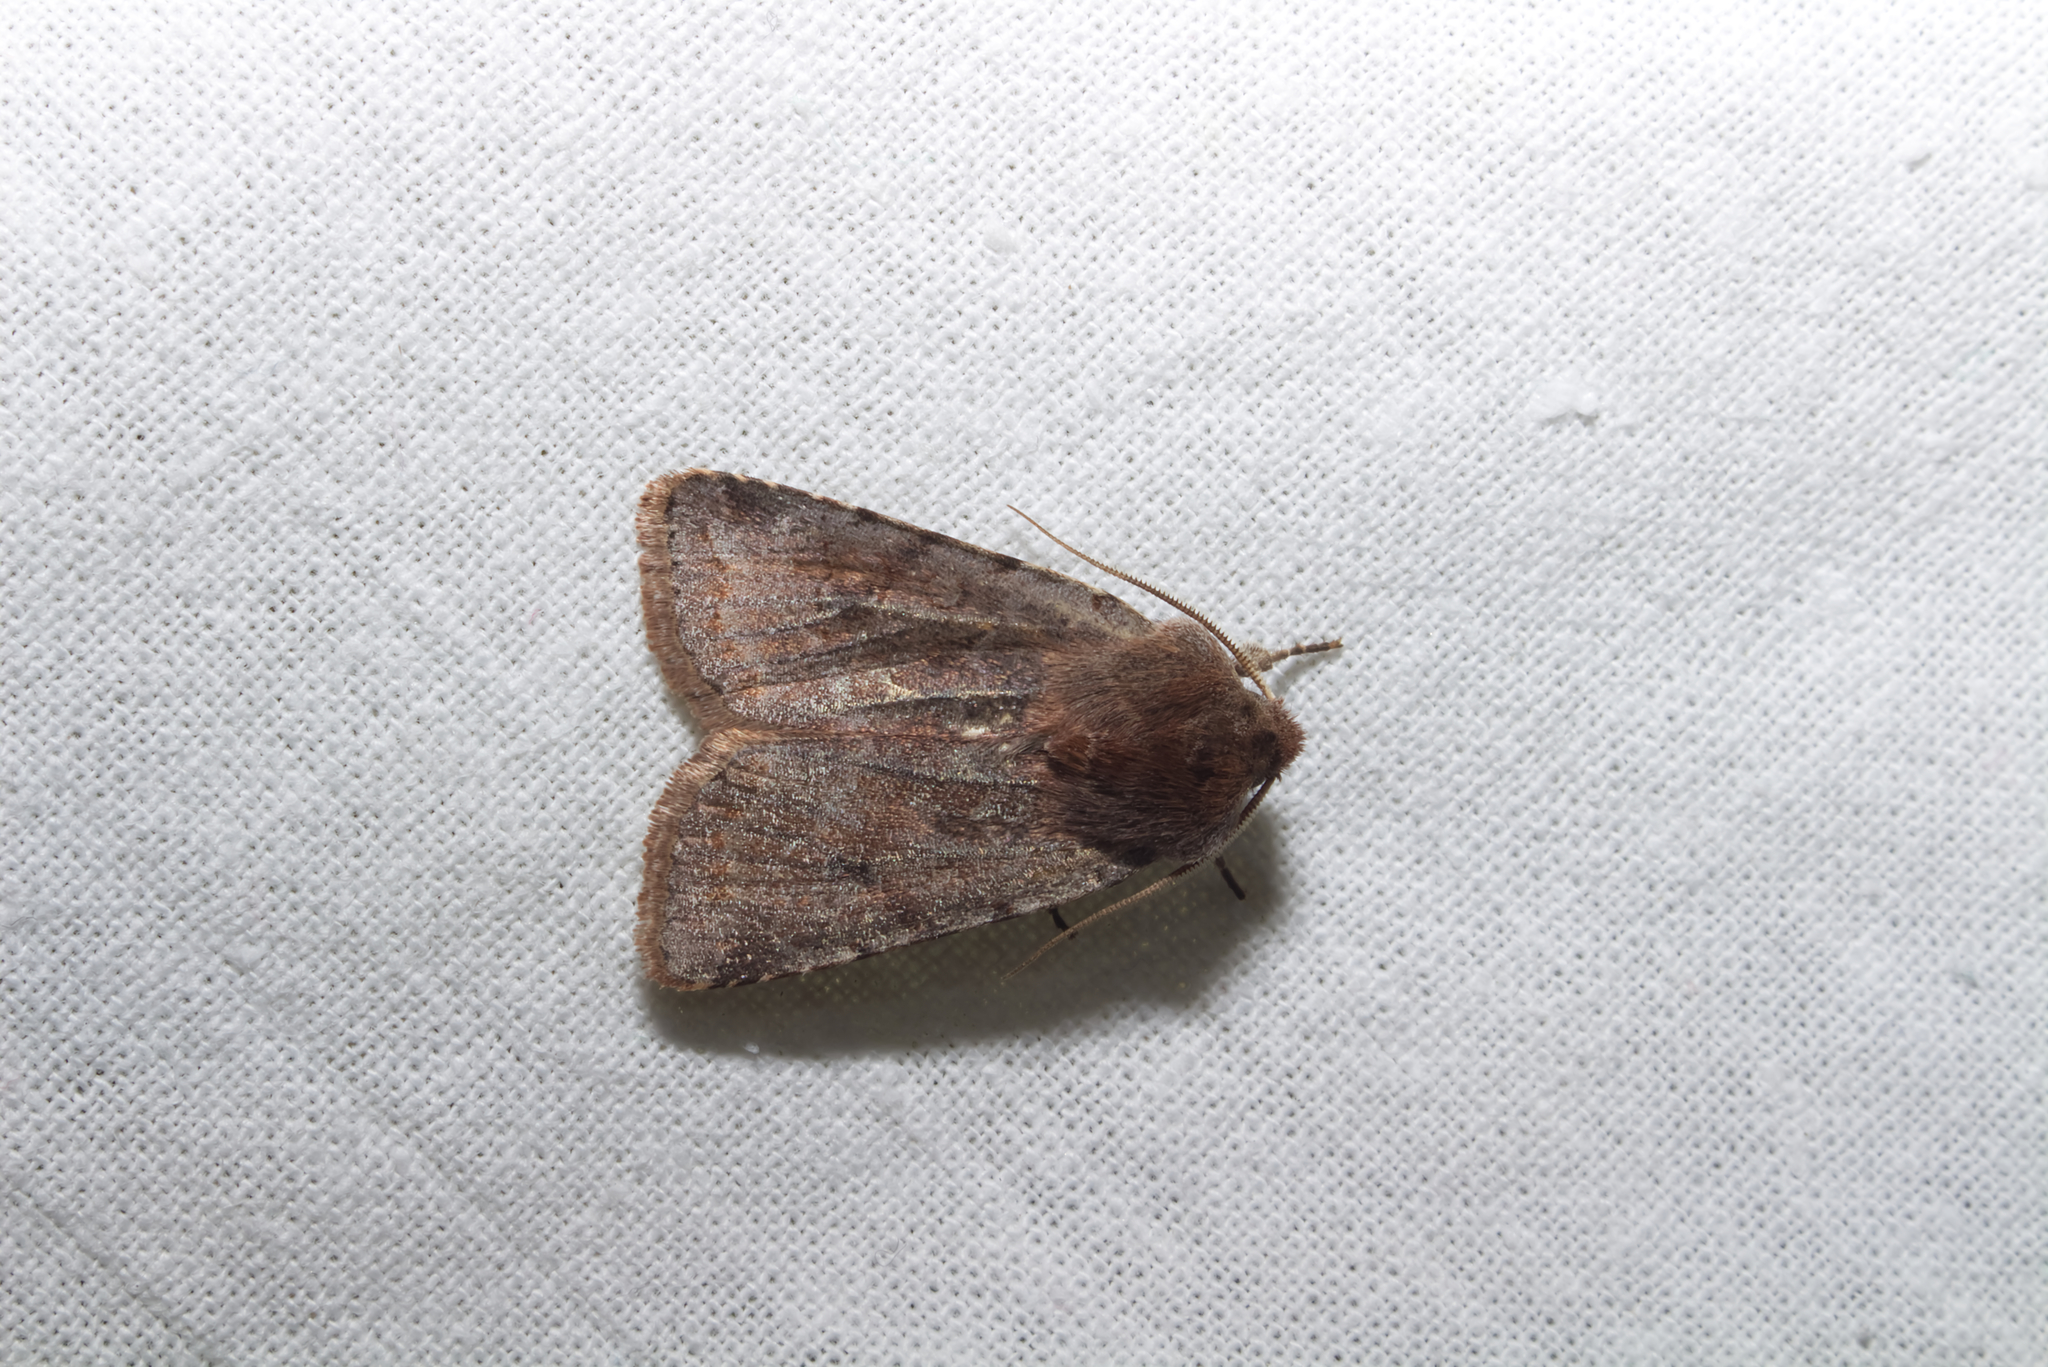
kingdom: Animalia
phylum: Arthropoda
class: Insecta
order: Lepidoptera
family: Noctuidae
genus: Cerastis
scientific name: Cerastis rubricosa
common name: Red chestnut
